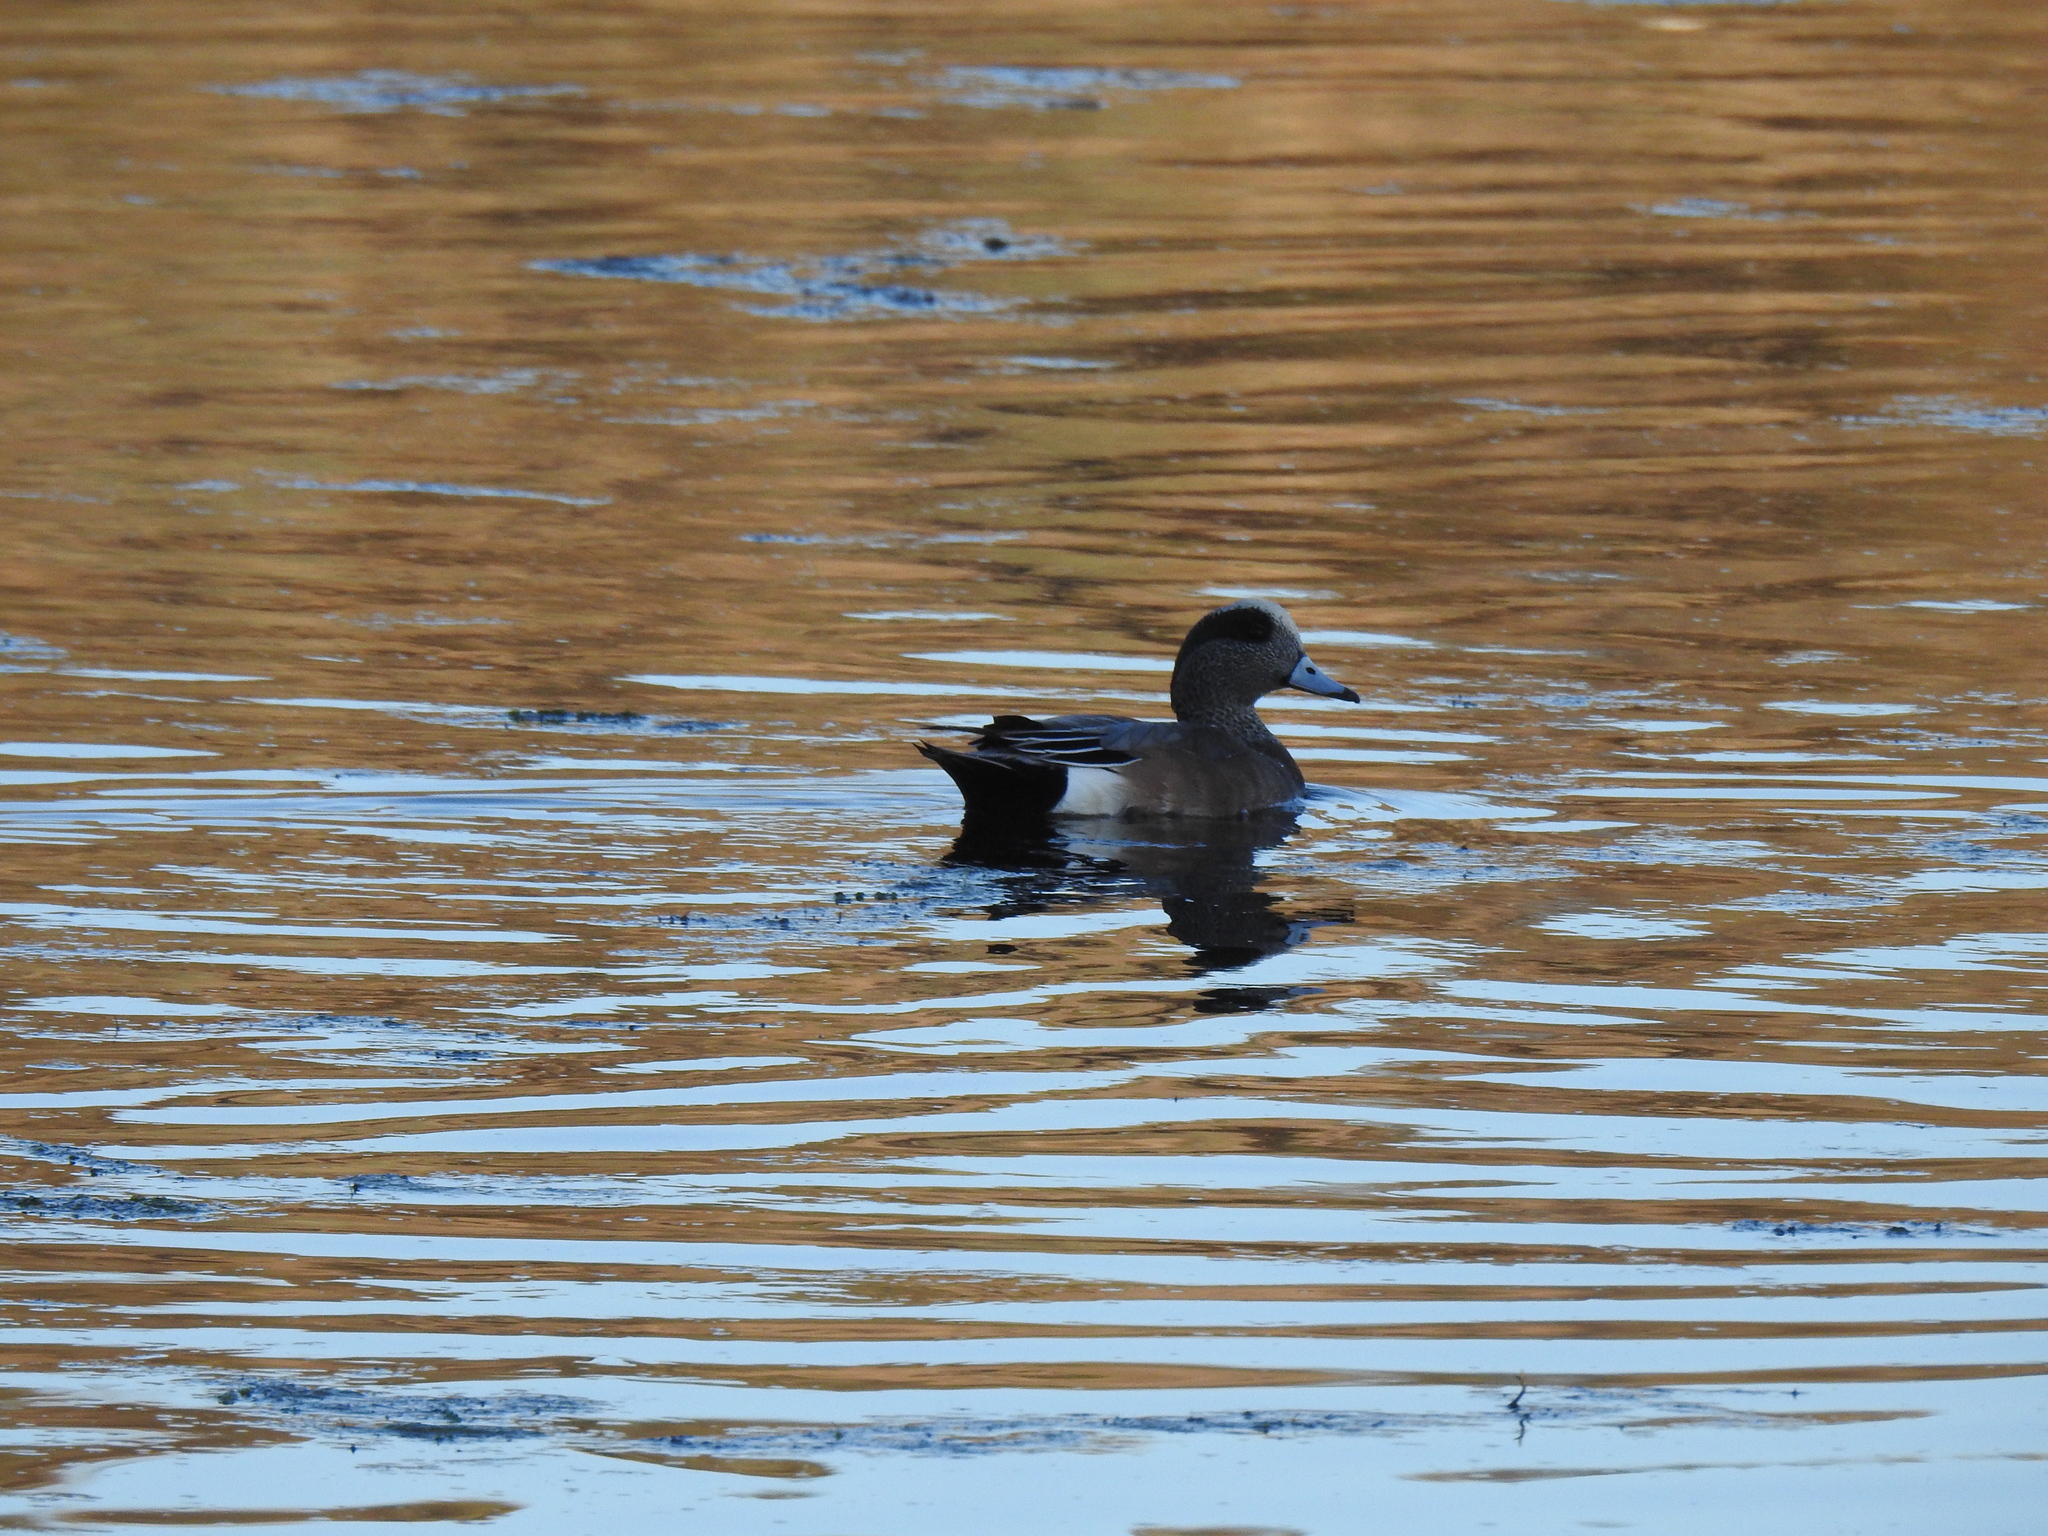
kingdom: Animalia
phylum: Chordata
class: Aves
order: Anseriformes
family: Anatidae
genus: Mareca
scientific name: Mareca americana
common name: American wigeon
